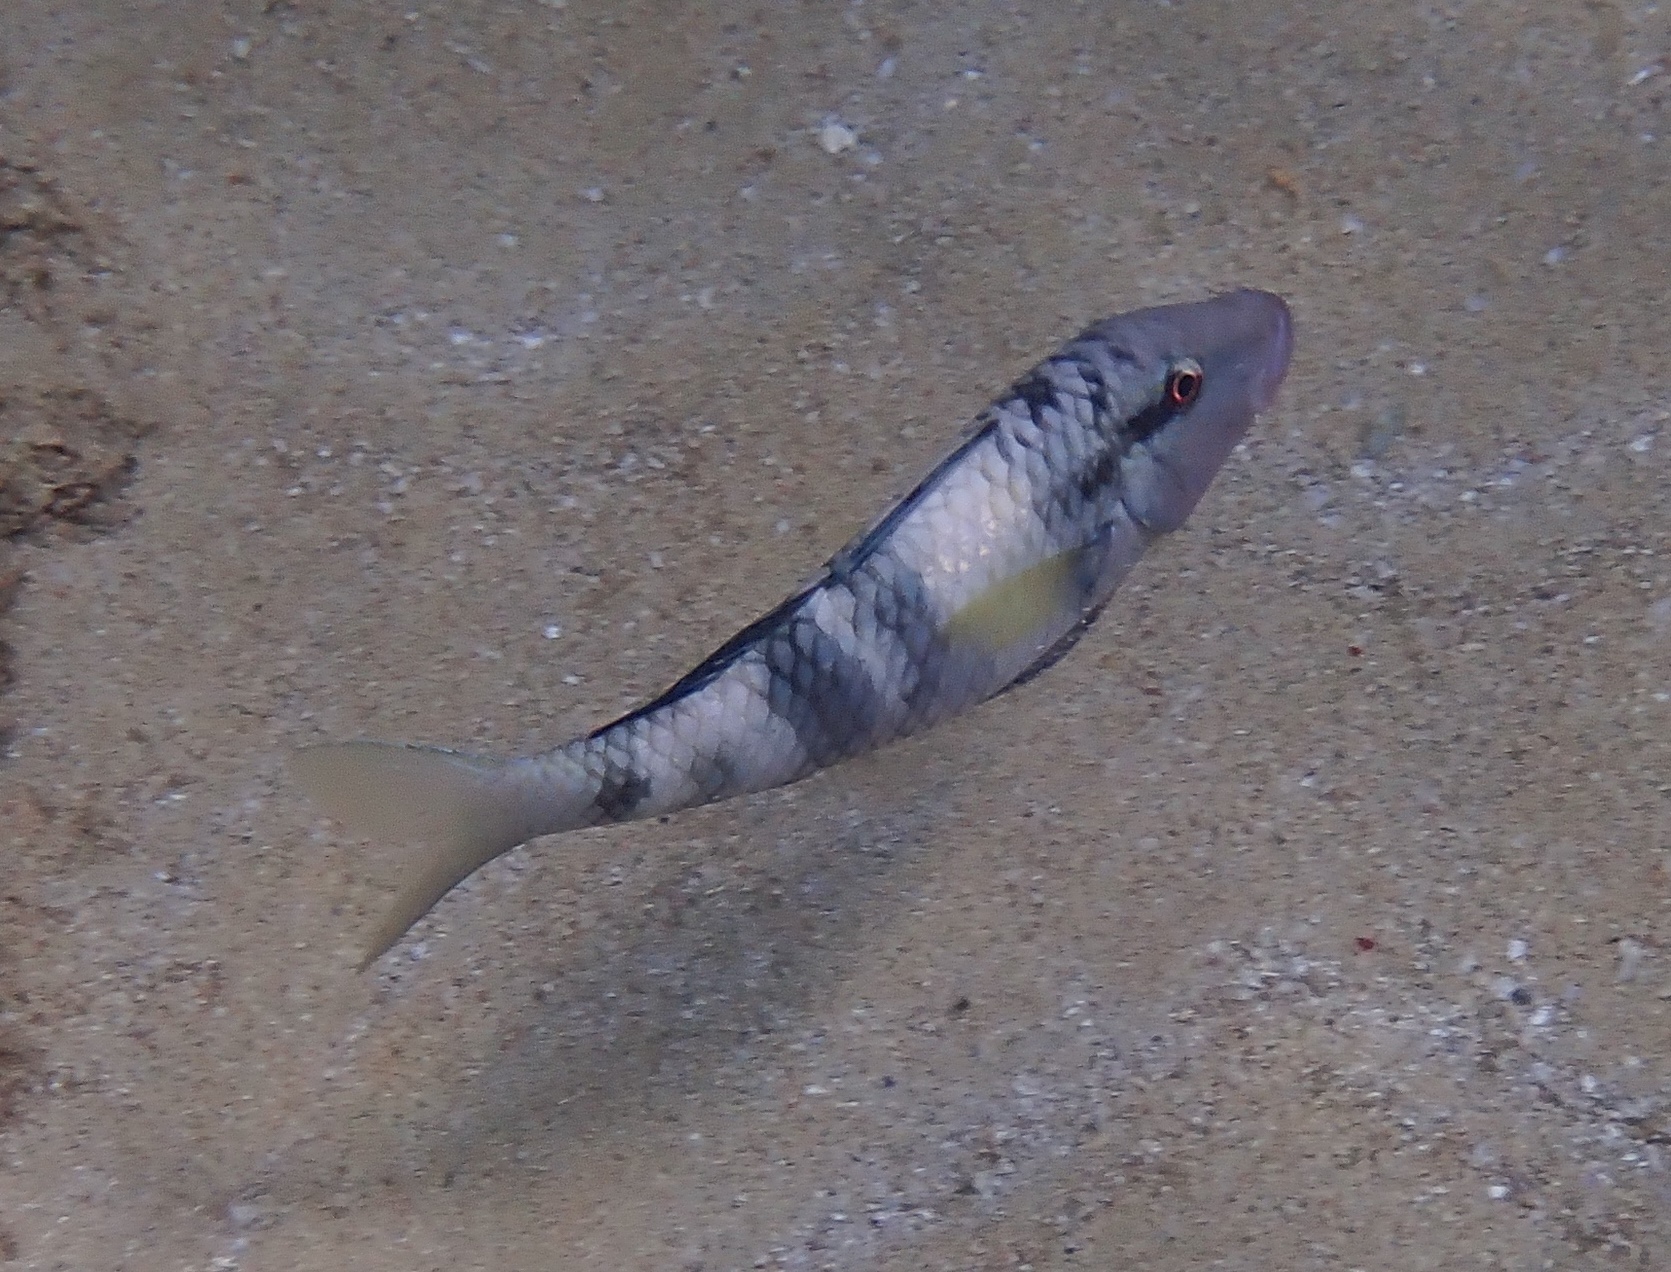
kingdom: Animalia
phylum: Chordata
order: Perciformes
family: Mullidae
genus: Parupeneus
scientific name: Parupeneus multifasciatus
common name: Manybar goatfish
